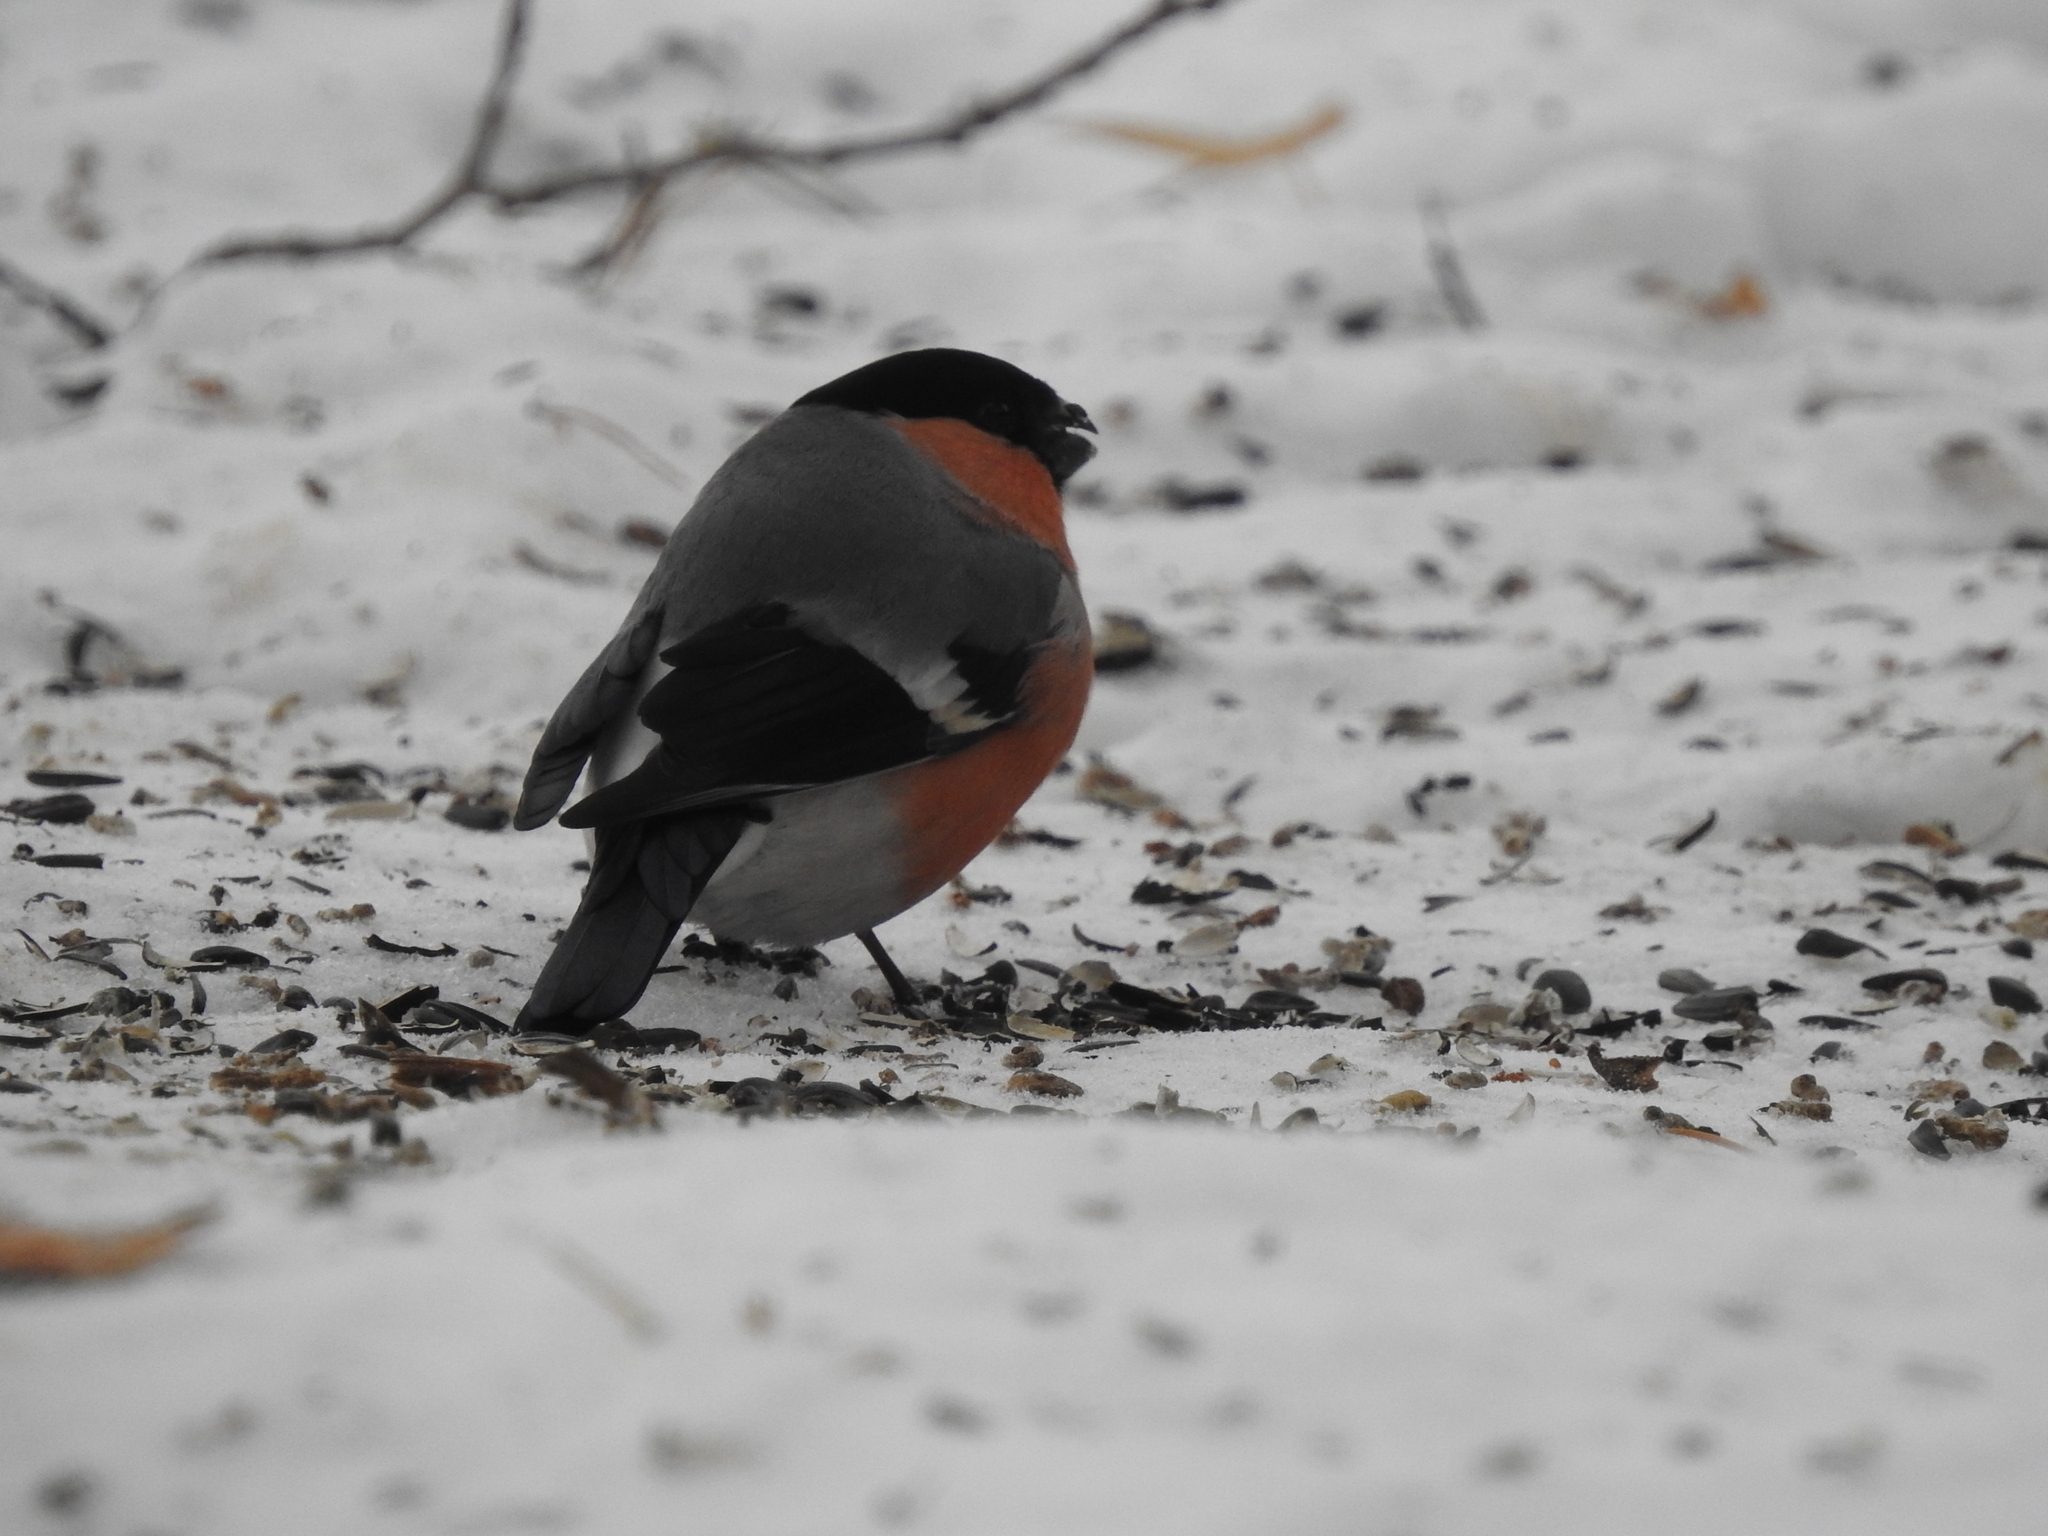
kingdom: Animalia
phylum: Chordata
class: Aves
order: Passeriformes
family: Fringillidae
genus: Pyrrhula
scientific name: Pyrrhula pyrrhula
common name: Eurasian bullfinch
